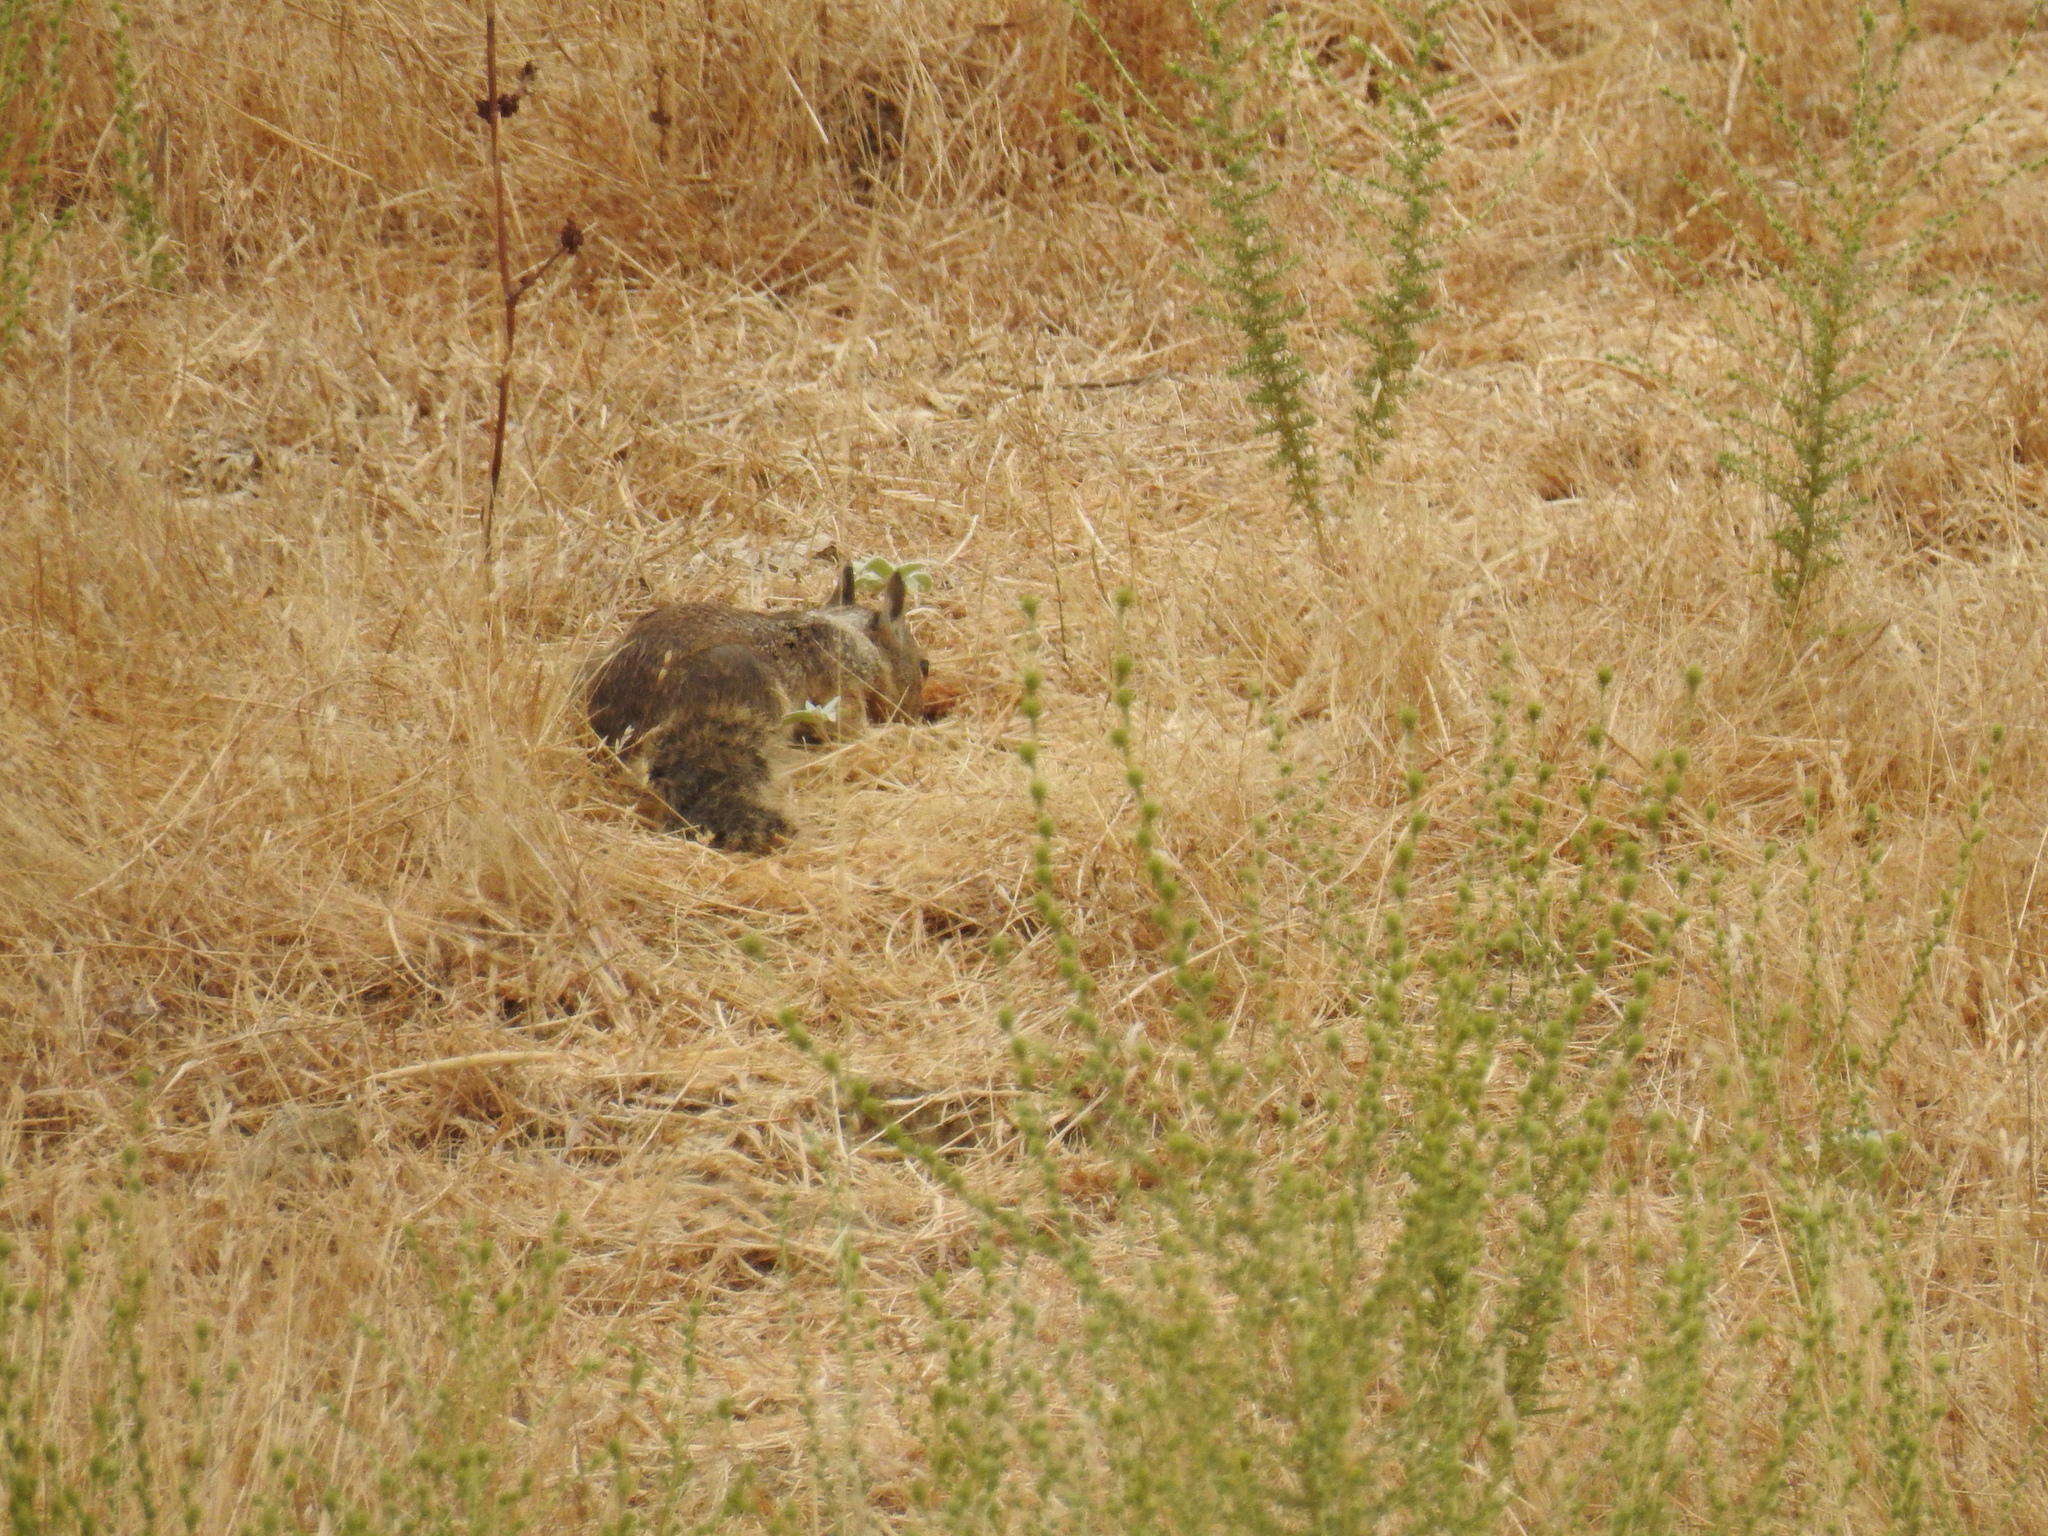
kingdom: Animalia
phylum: Chordata
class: Mammalia
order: Rodentia
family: Sciuridae
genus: Otospermophilus
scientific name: Otospermophilus beecheyi
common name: California ground squirrel
